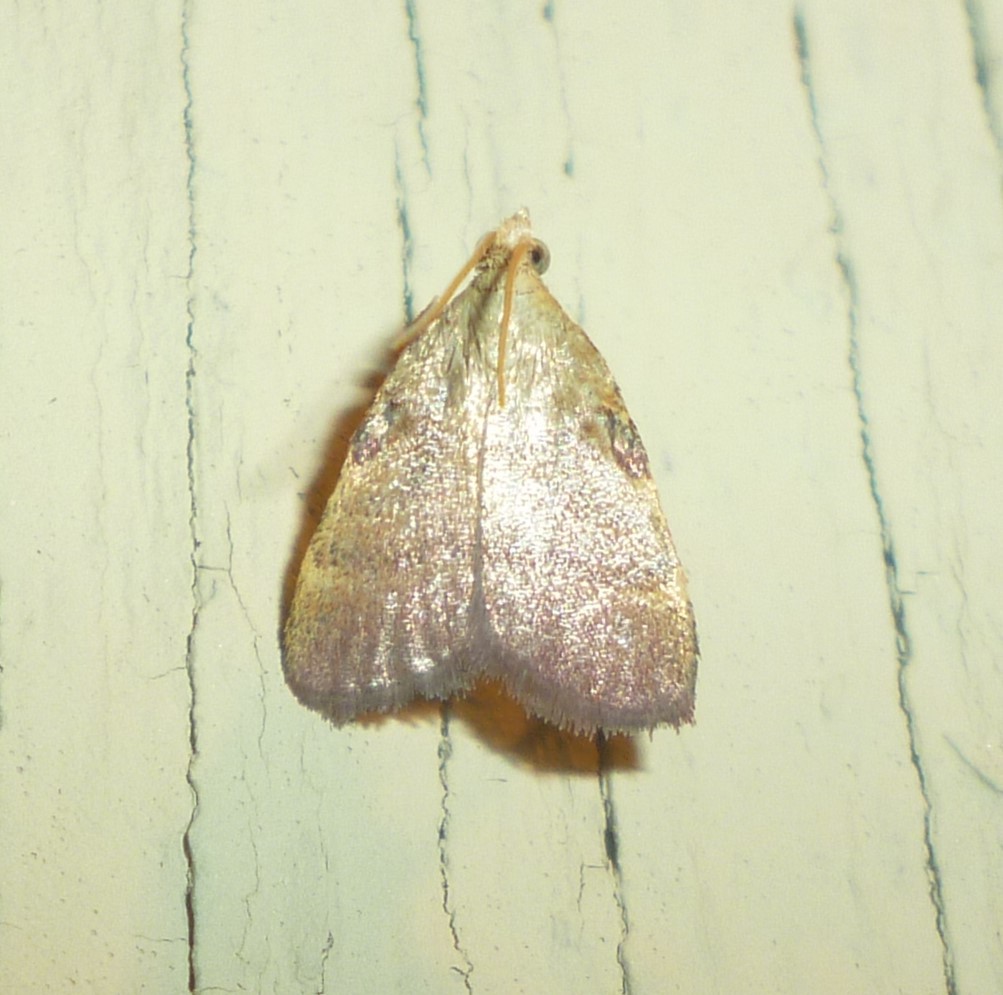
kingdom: Animalia
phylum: Arthropoda
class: Insecta
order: Lepidoptera
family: Pyralidae
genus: Condylolomia
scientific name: Condylolomia participialis
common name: Drab condylolomia moth
